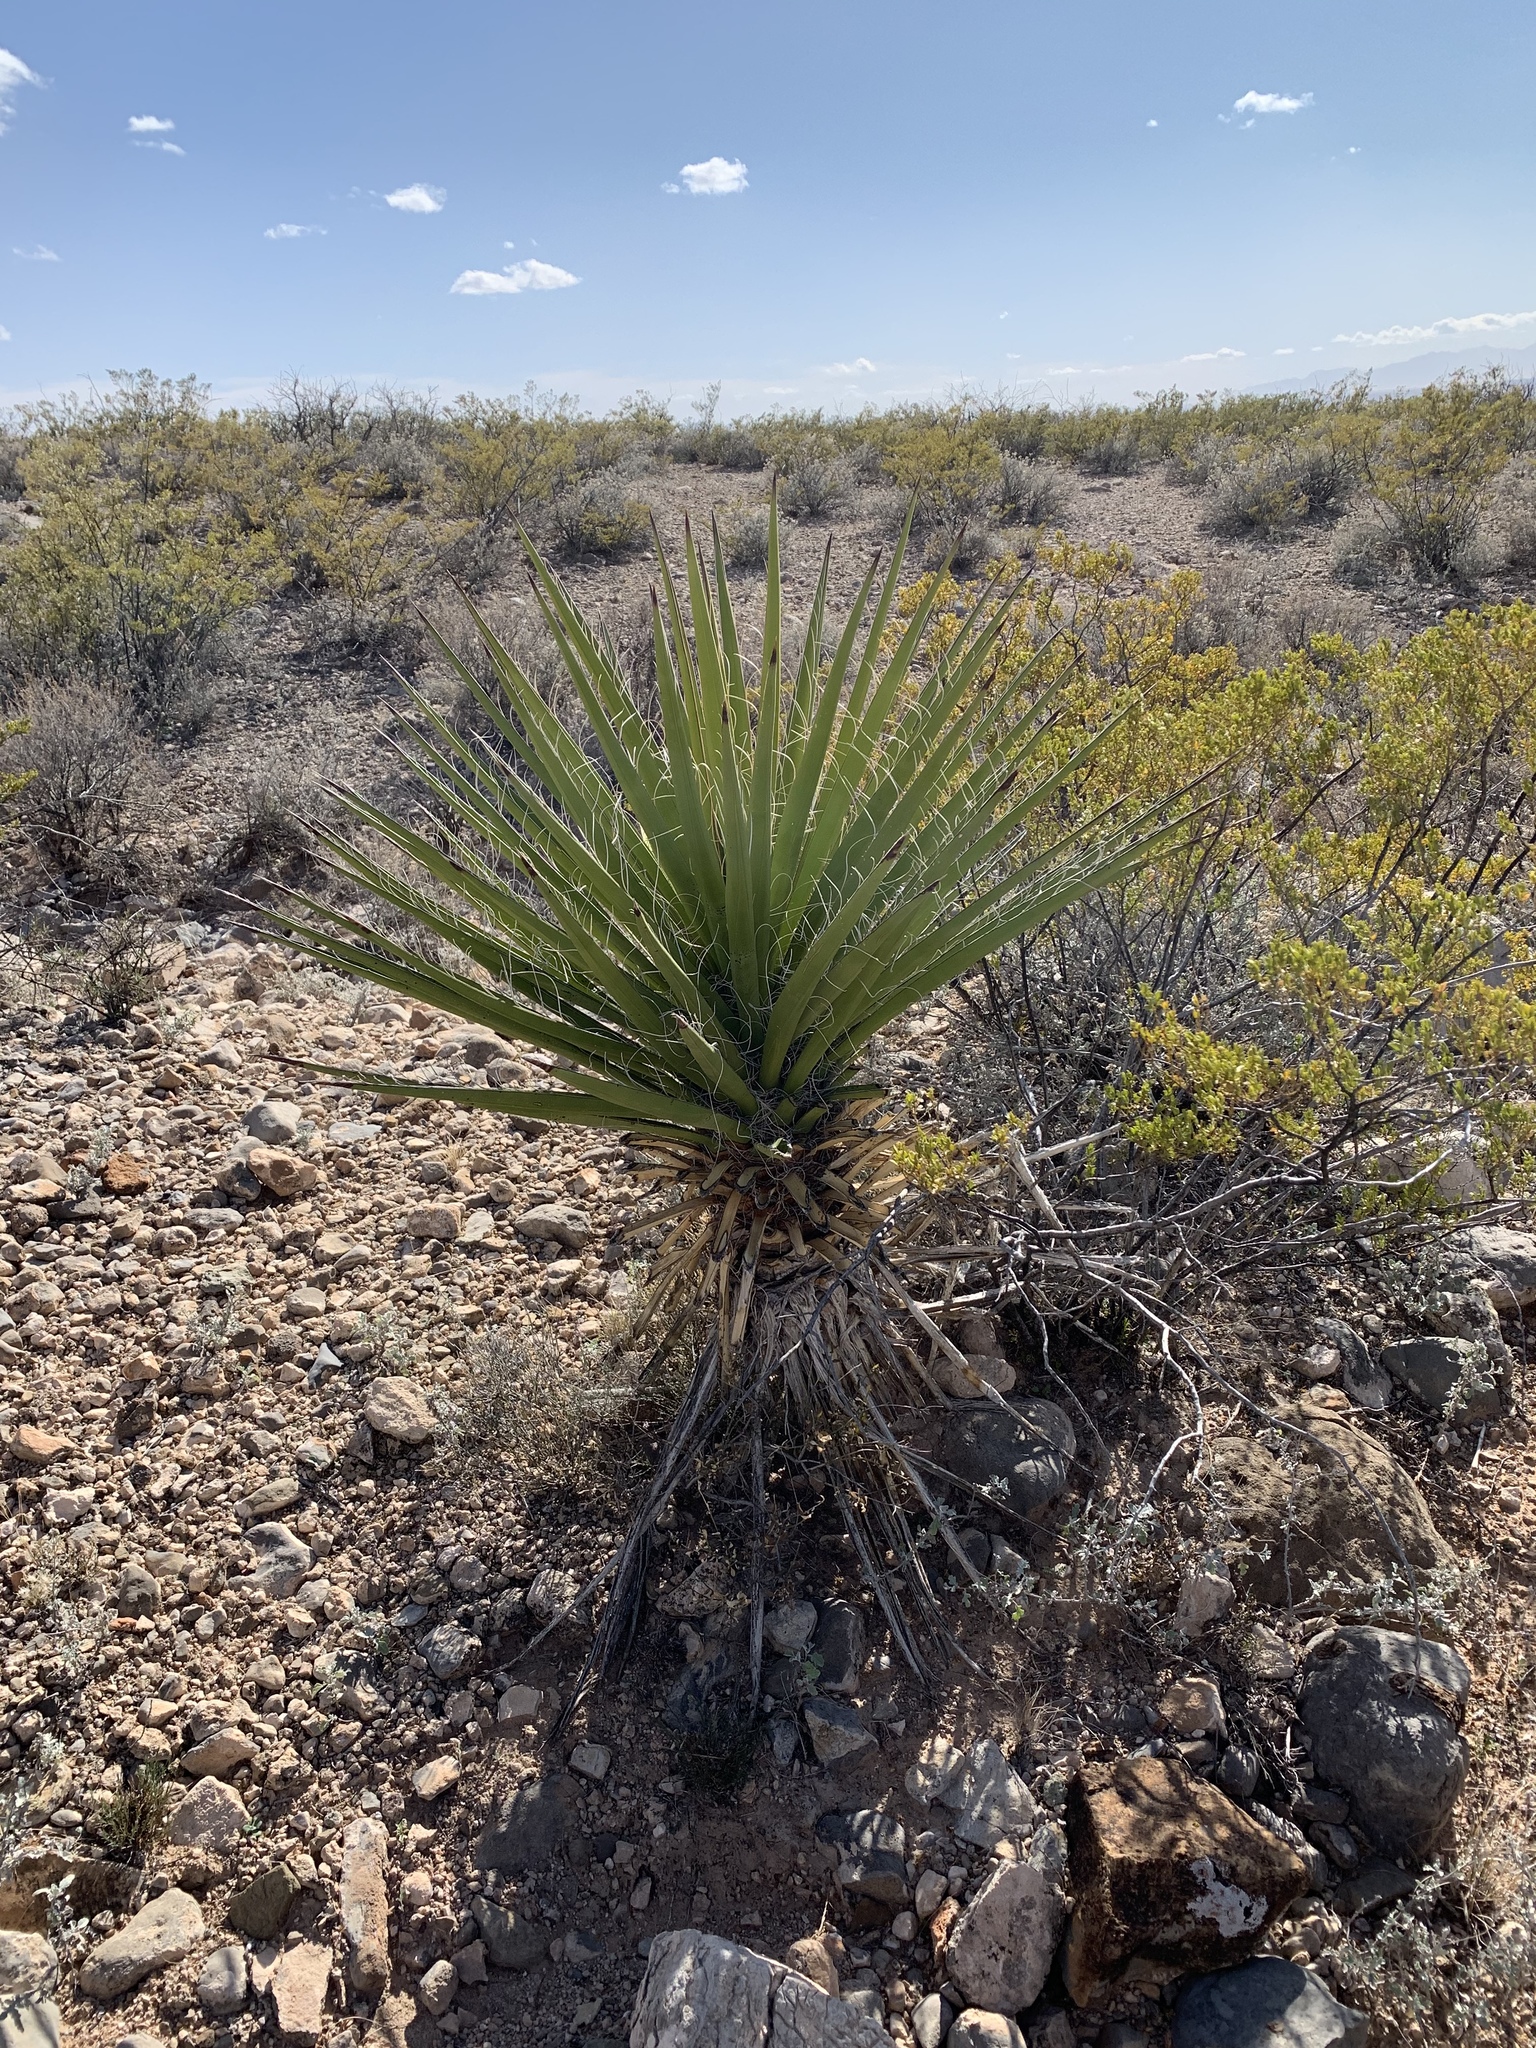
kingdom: Plantae
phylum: Tracheophyta
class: Liliopsida
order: Asparagales
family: Asparagaceae
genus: Yucca
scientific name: Yucca treculiana
